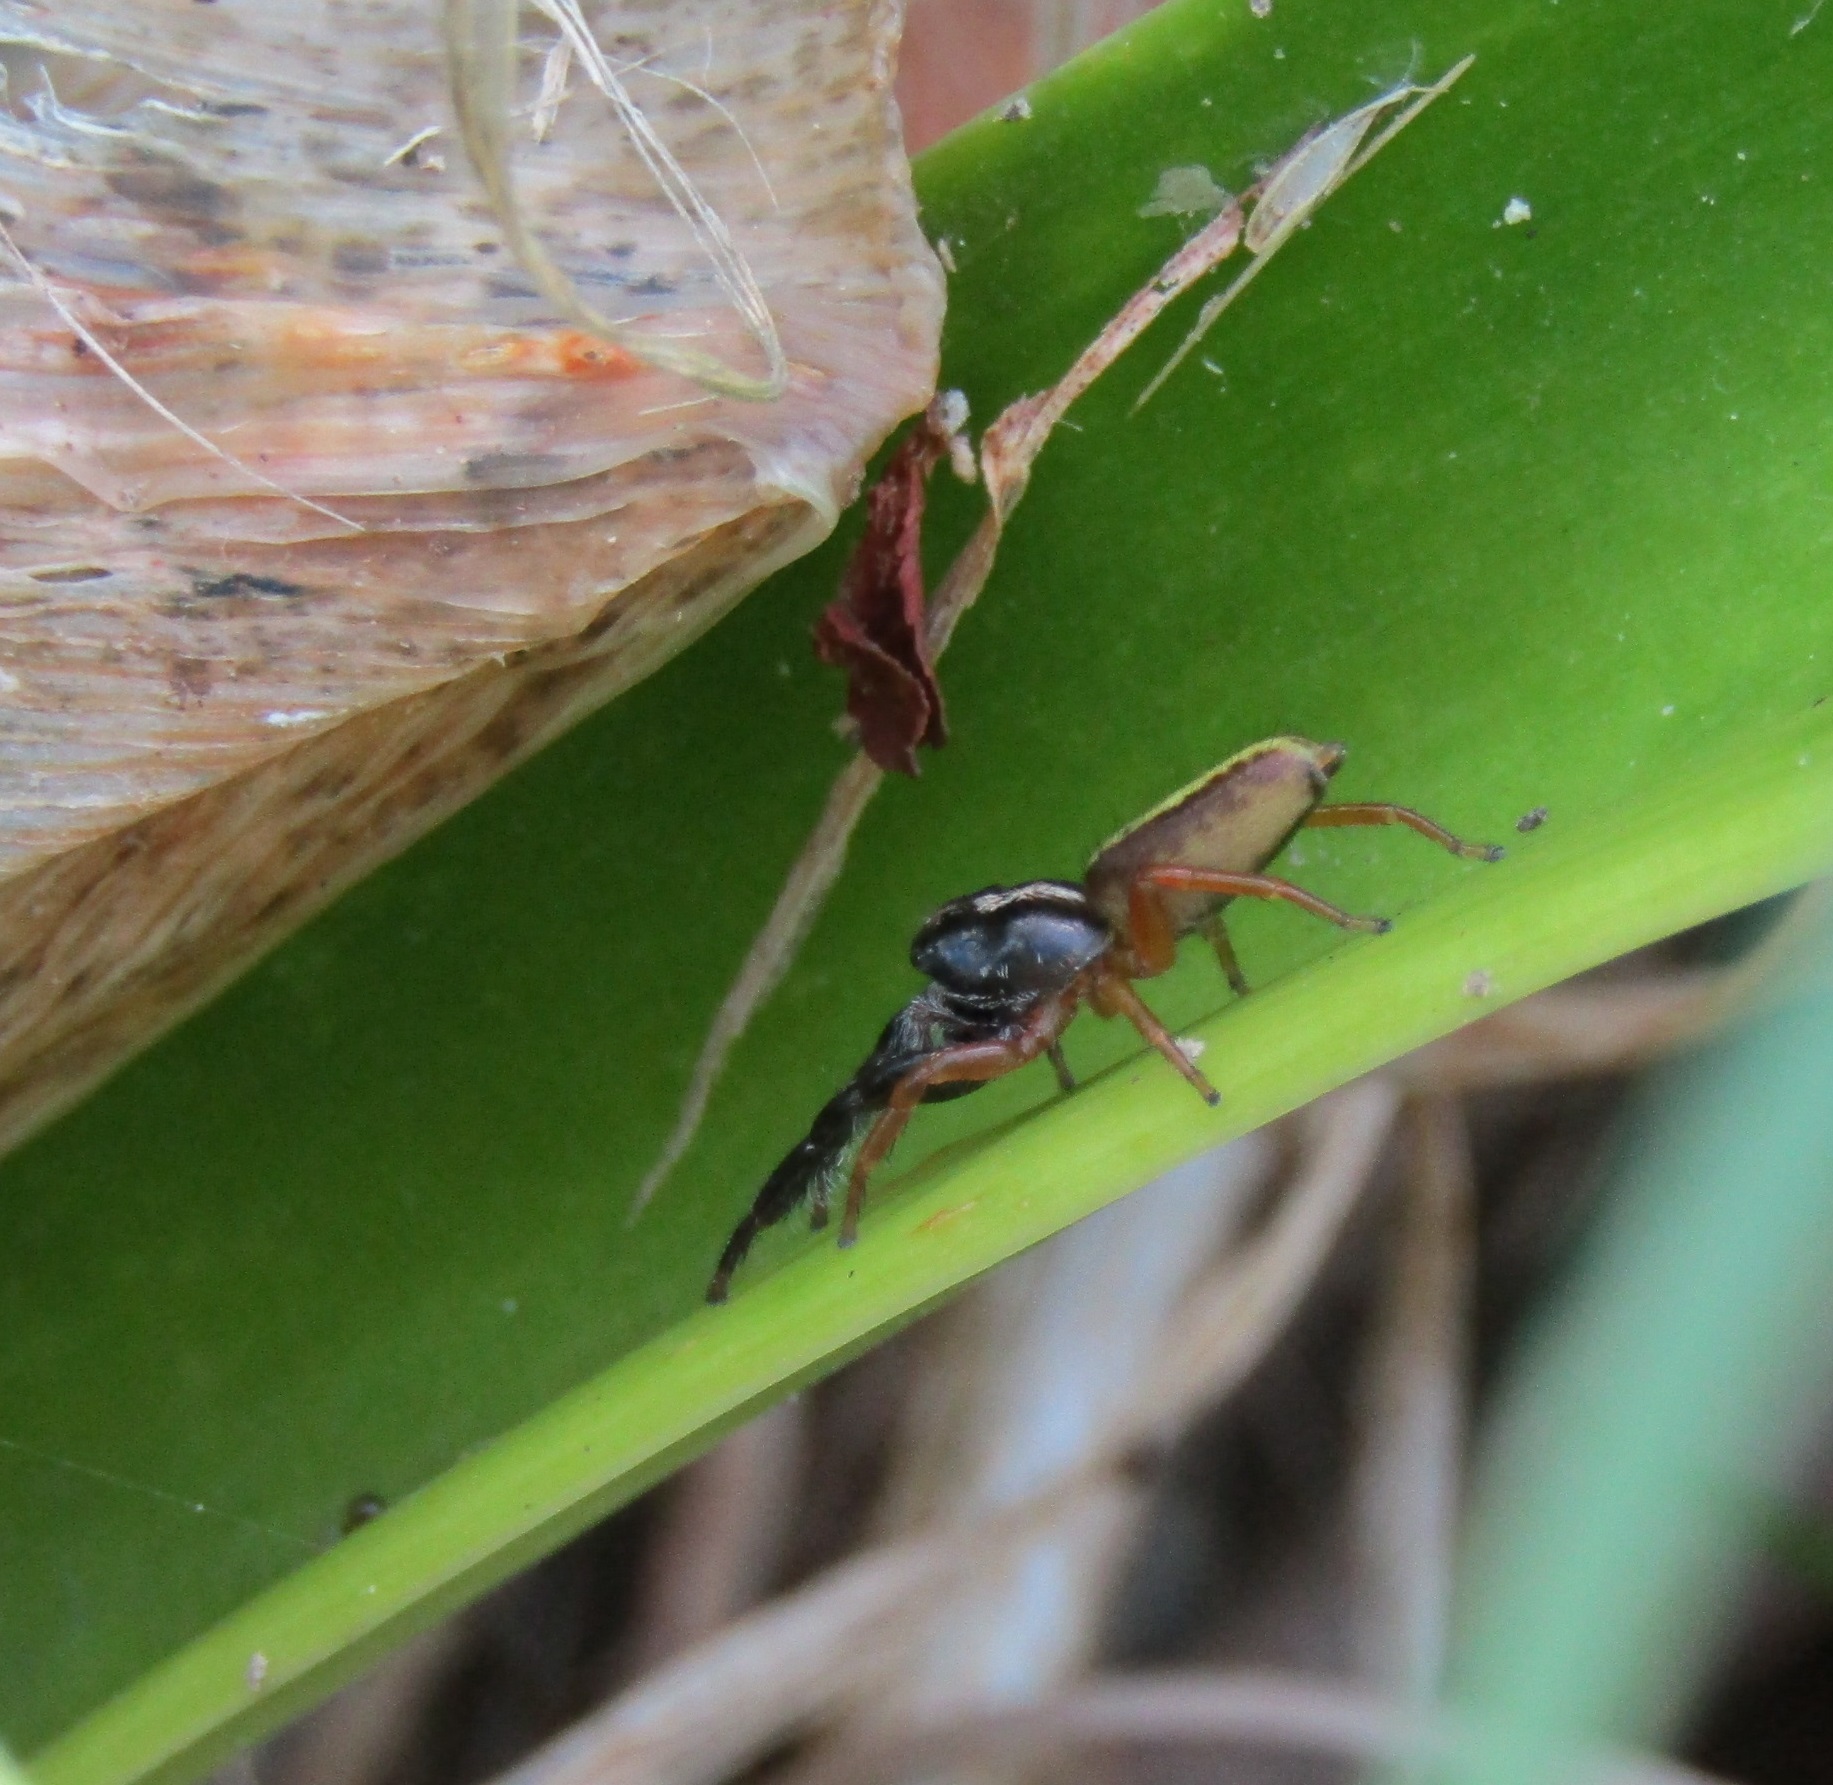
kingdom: Animalia
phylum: Arthropoda
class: Arachnida
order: Araneae
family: Salticidae
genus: Trite
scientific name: Trite planiceps
